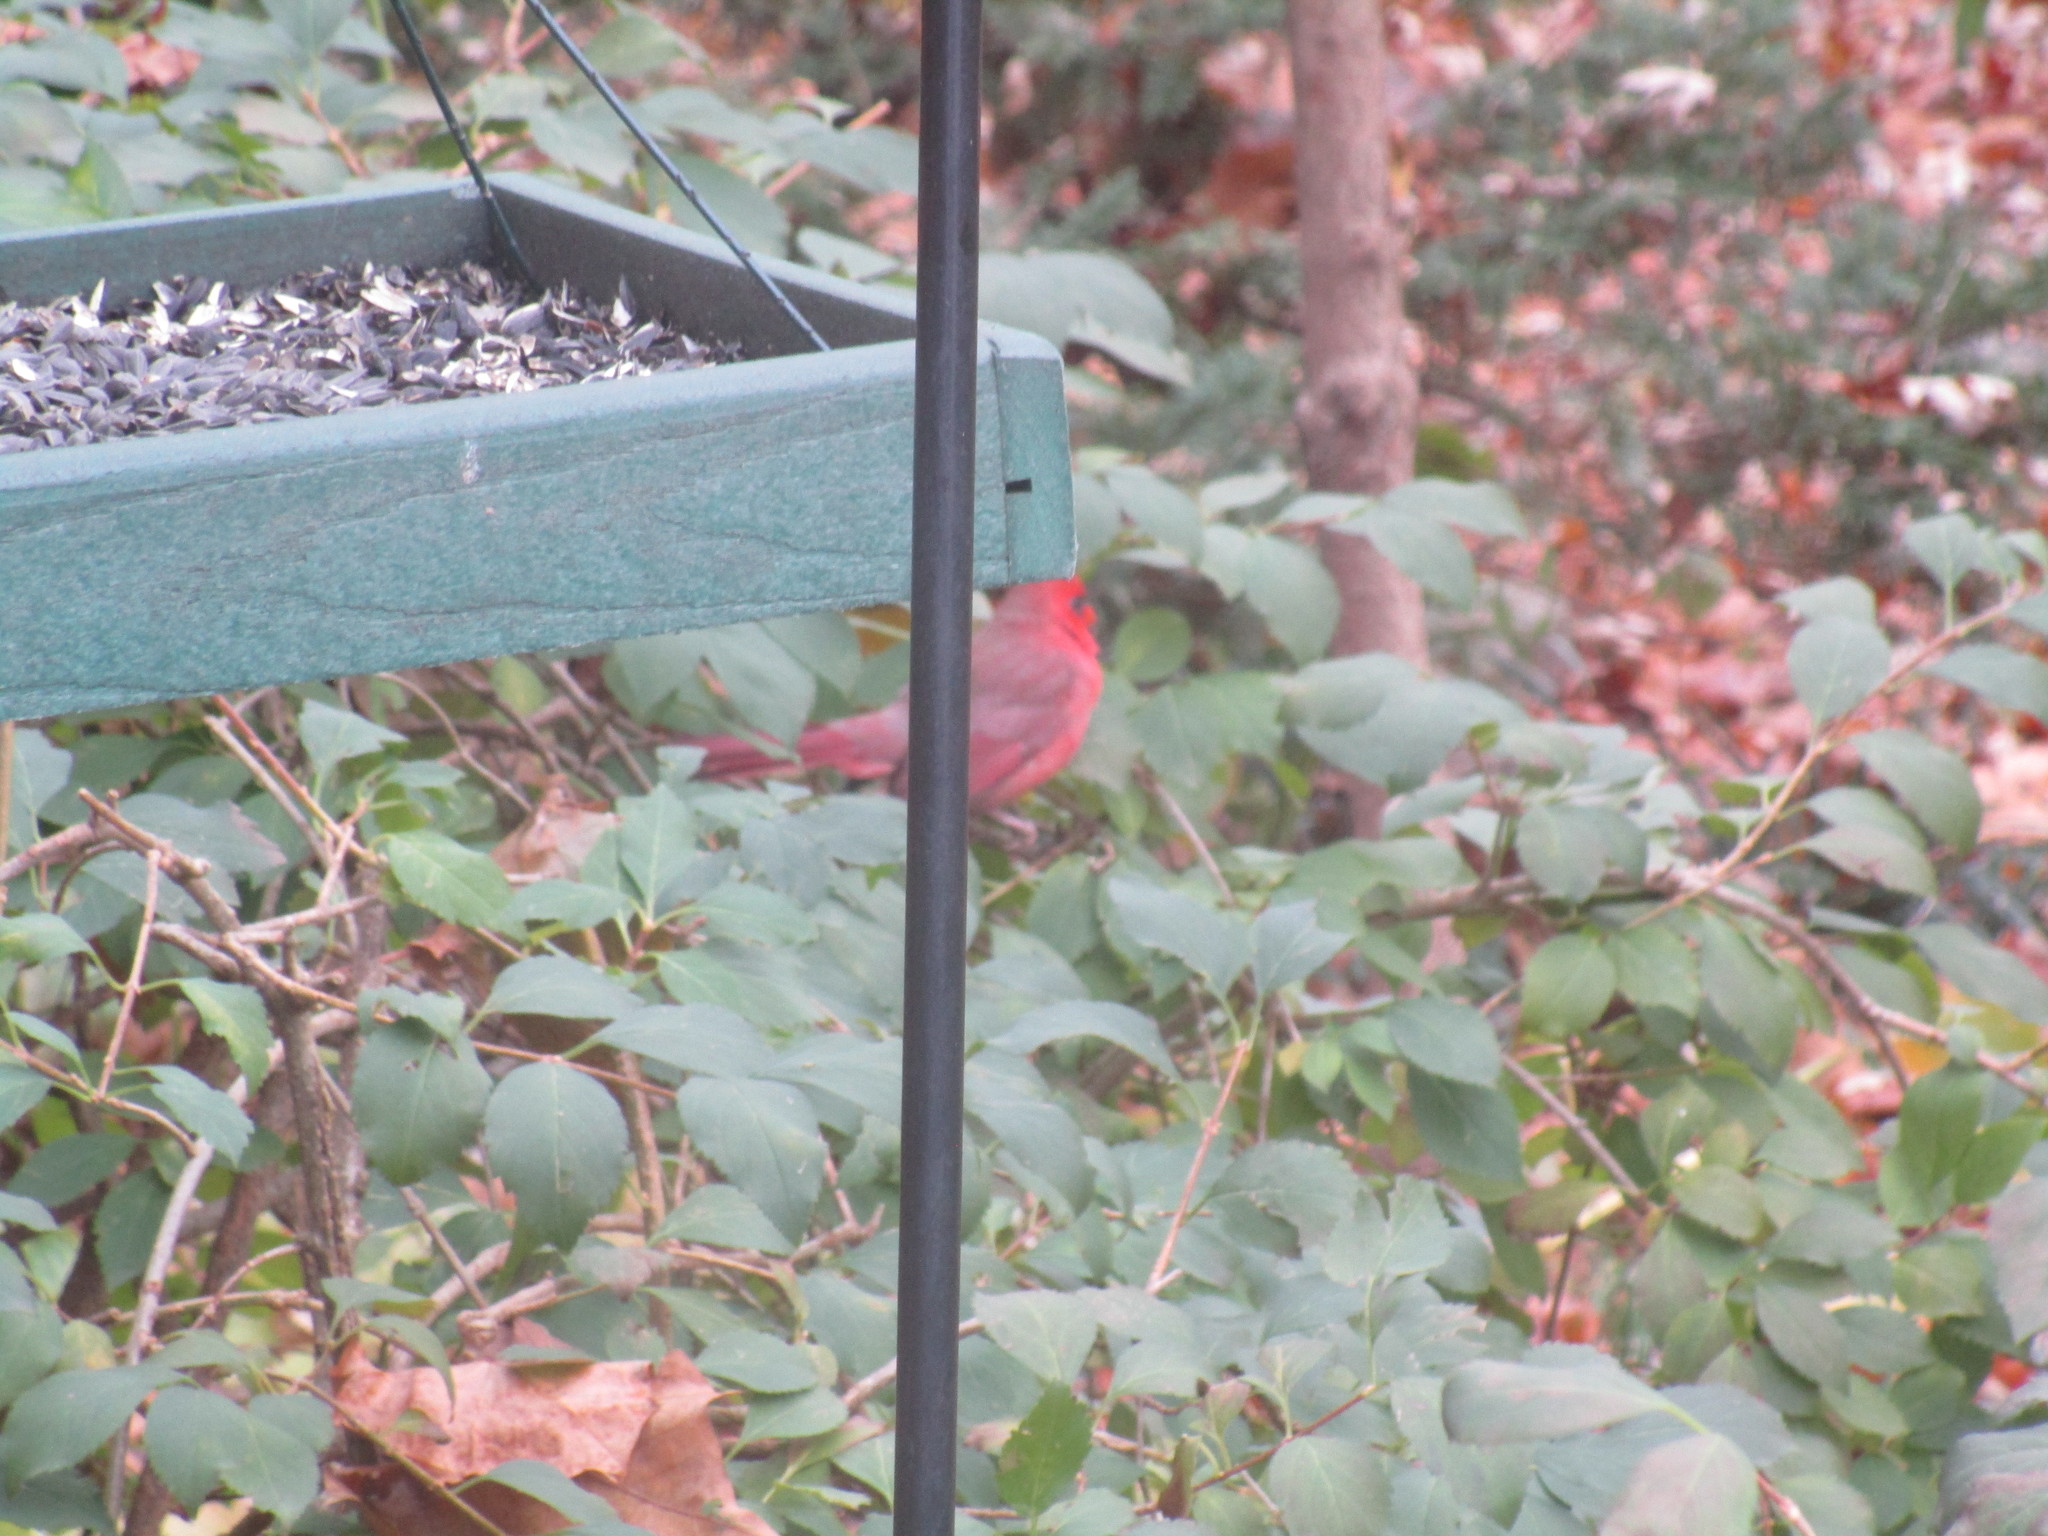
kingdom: Animalia
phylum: Chordata
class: Aves
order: Passeriformes
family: Cardinalidae
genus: Cardinalis
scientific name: Cardinalis cardinalis
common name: Northern cardinal
